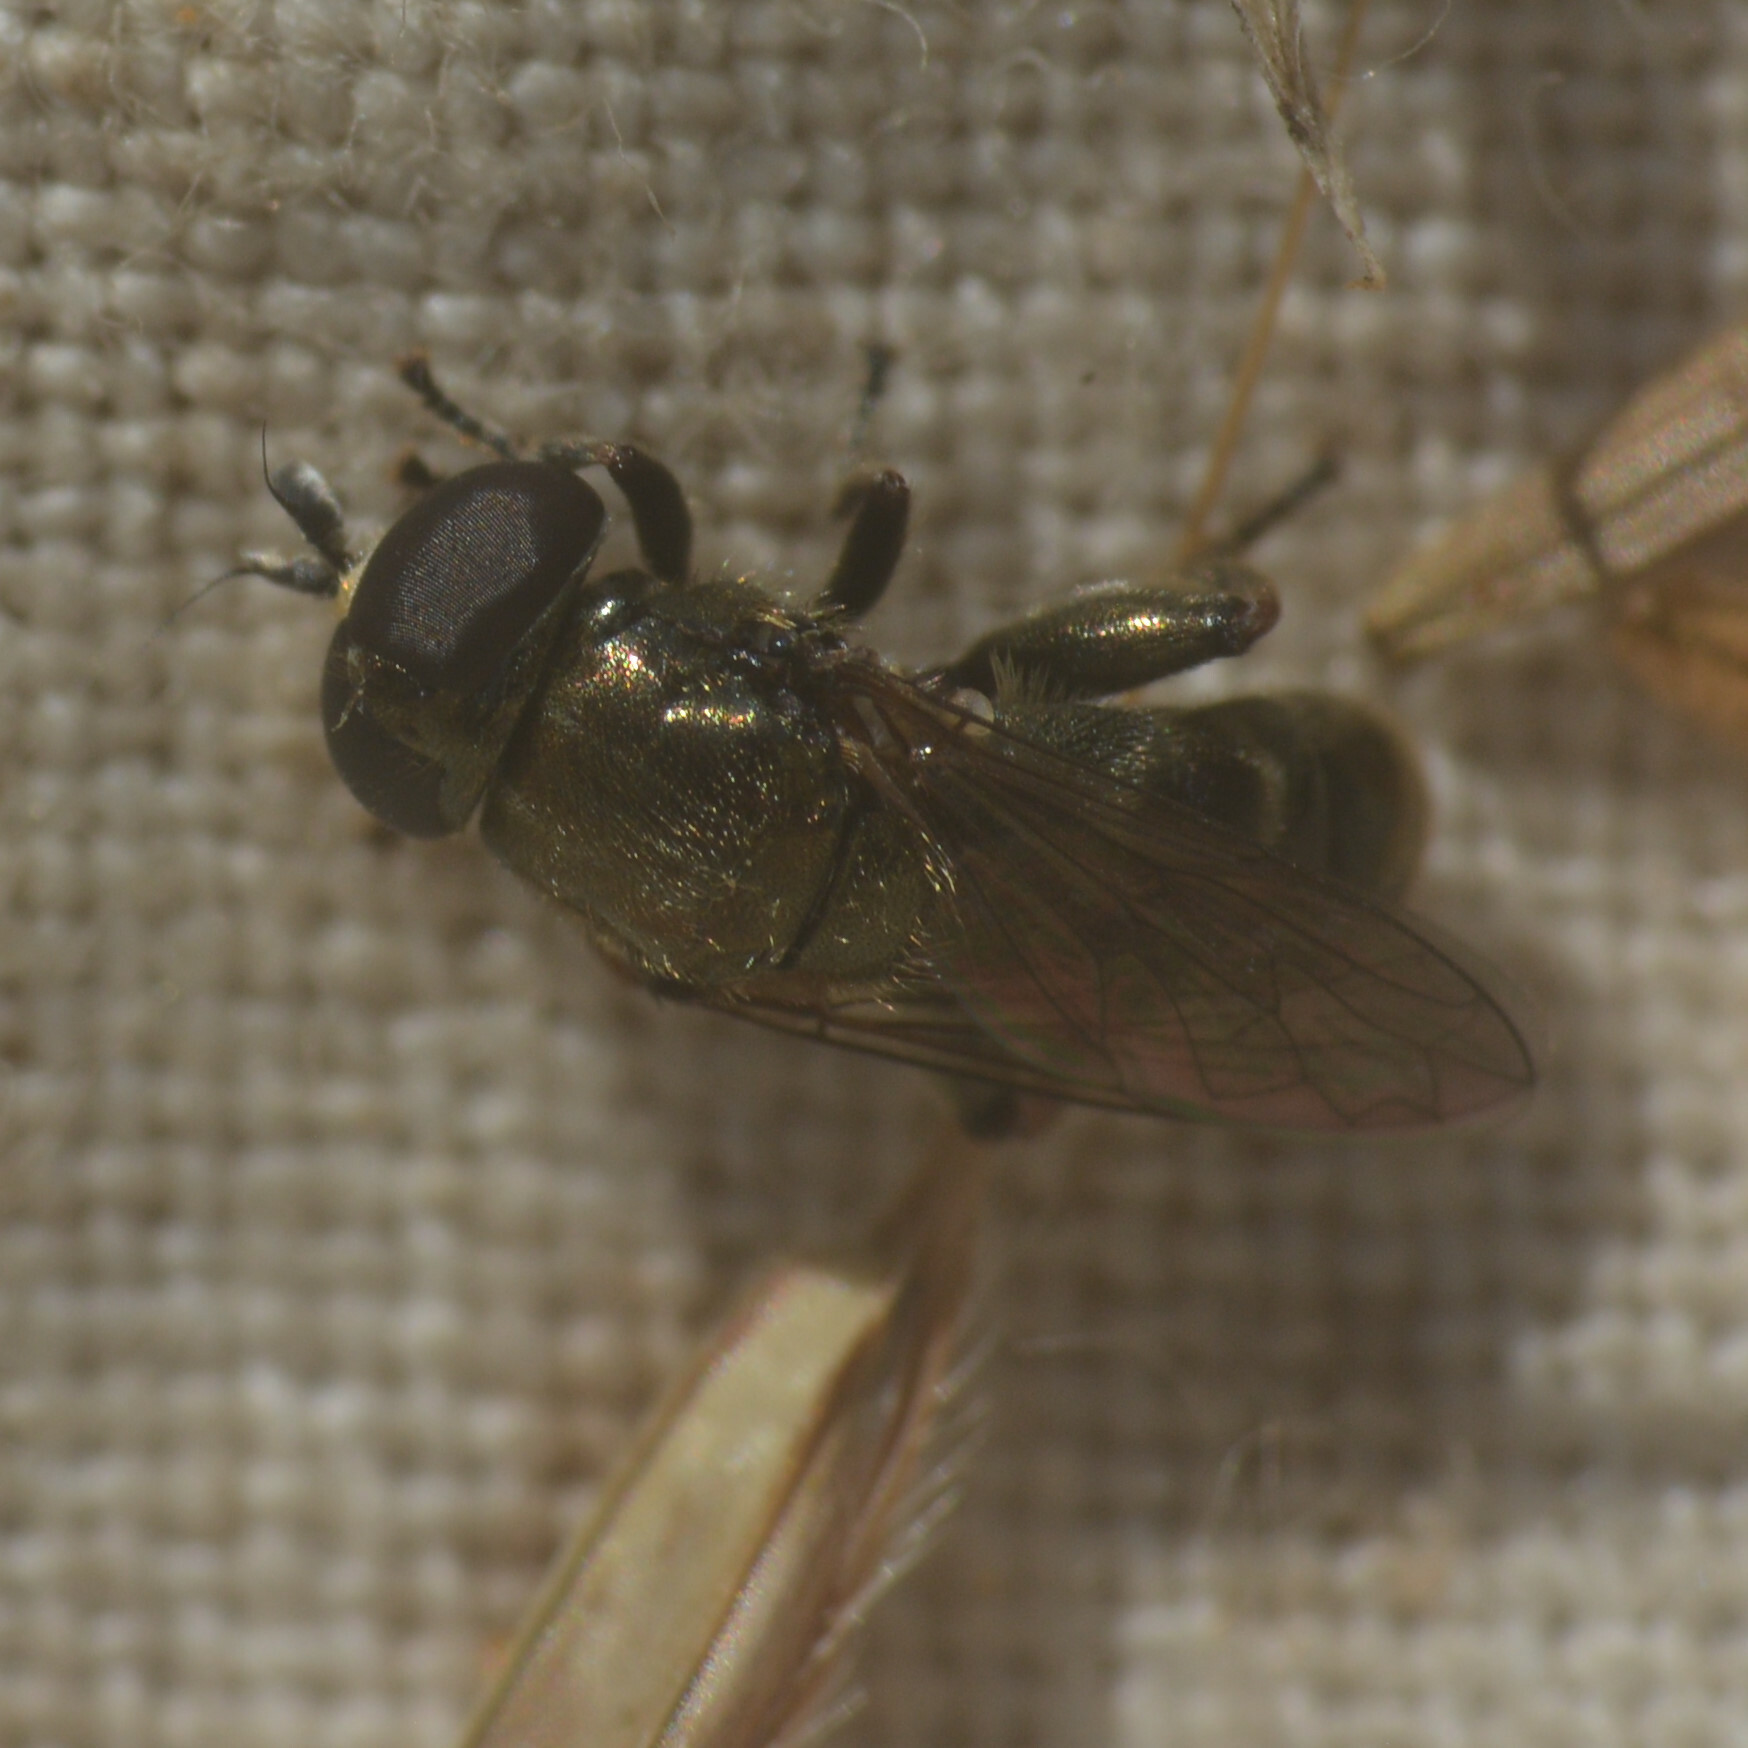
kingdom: Animalia
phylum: Arthropoda
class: Insecta
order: Diptera
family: Syrphidae
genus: Eumerus
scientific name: Eumerus
